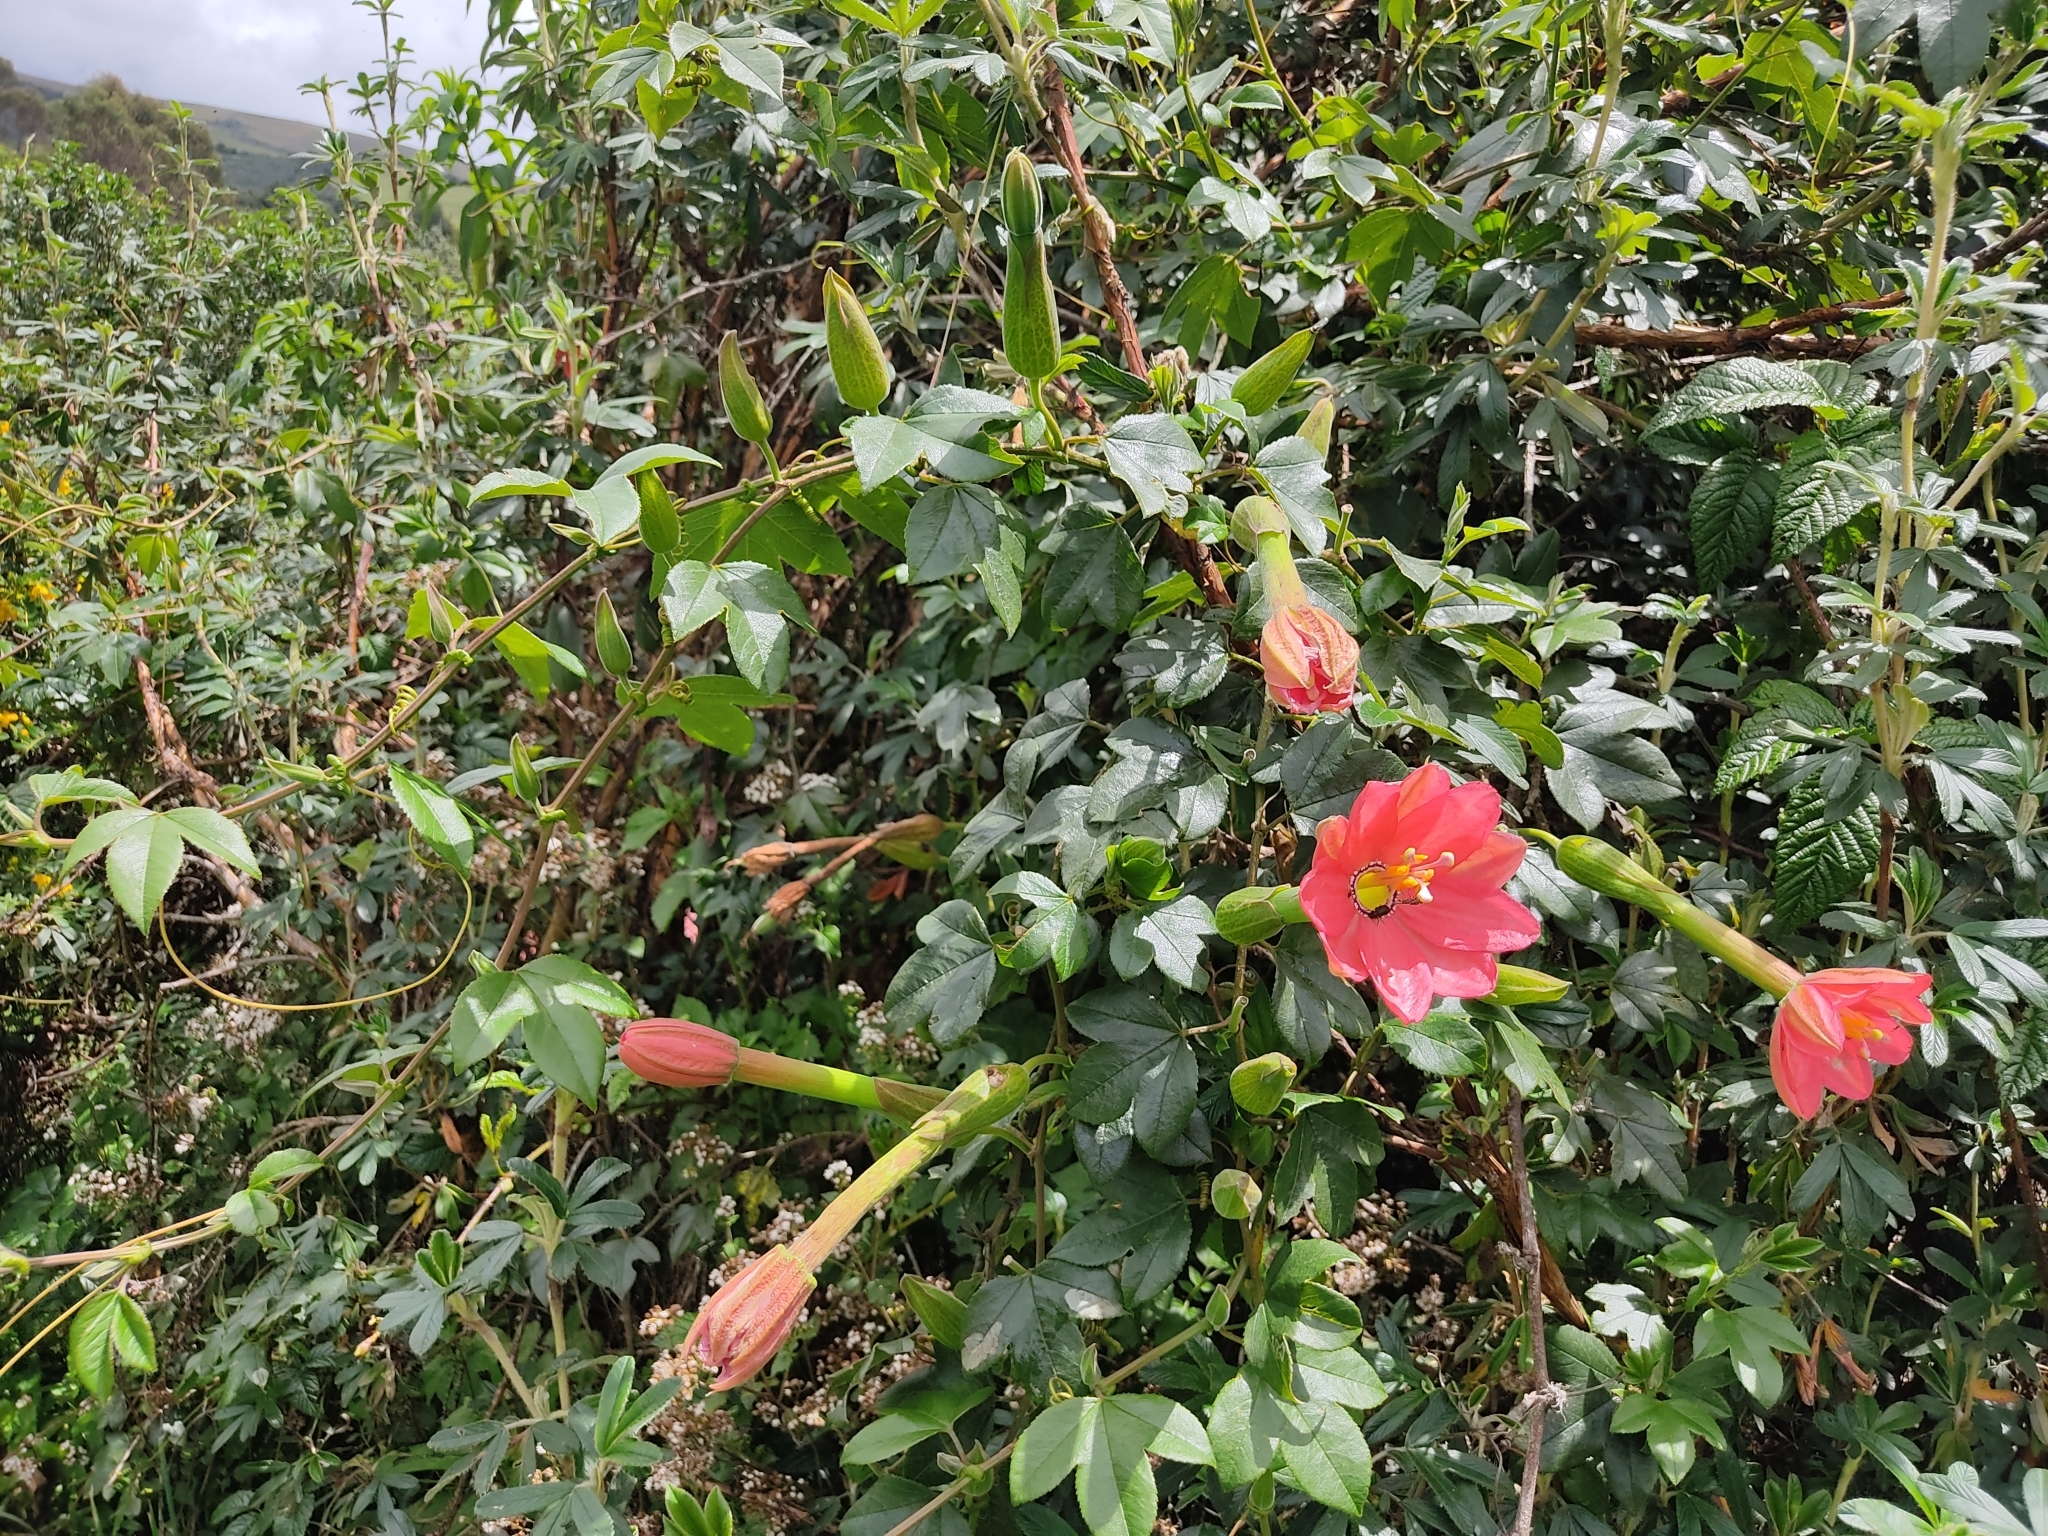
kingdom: Plantae
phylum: Tracheophyta
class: Magnoliopsida
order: Malpighiales
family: Passifloraceae
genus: Passiflora
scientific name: Passiflora mixta
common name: Passion flower
